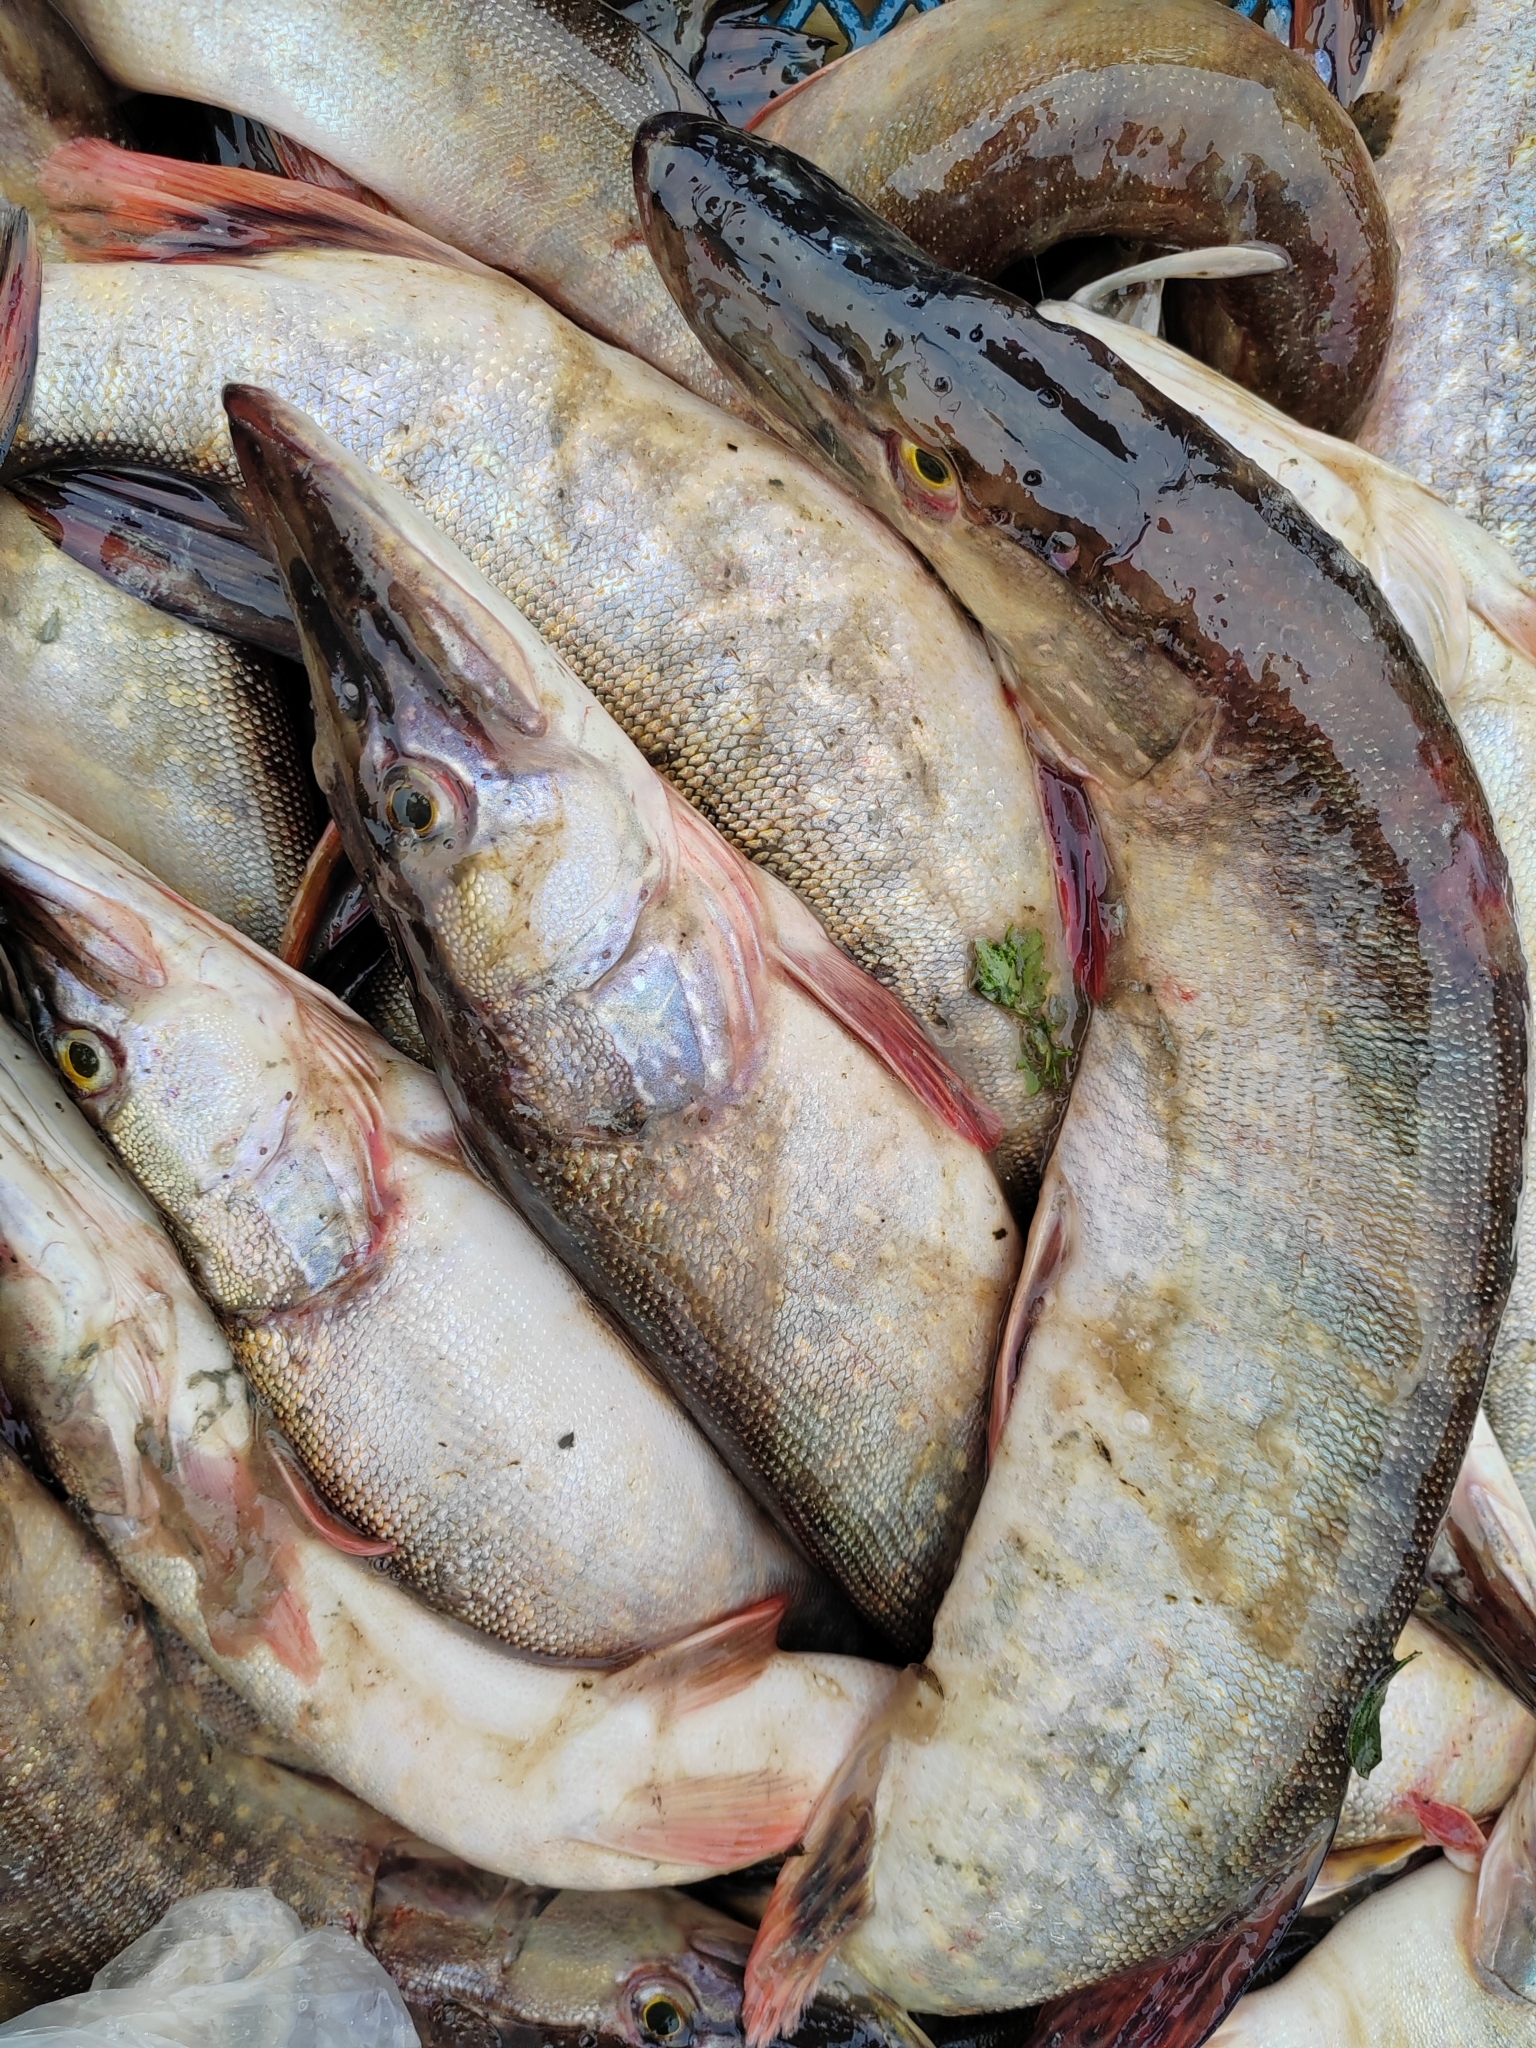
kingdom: Animalia
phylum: Chordata
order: Esociformes
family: Esocidae
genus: Esox
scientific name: Esox lucius
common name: Northern pike
